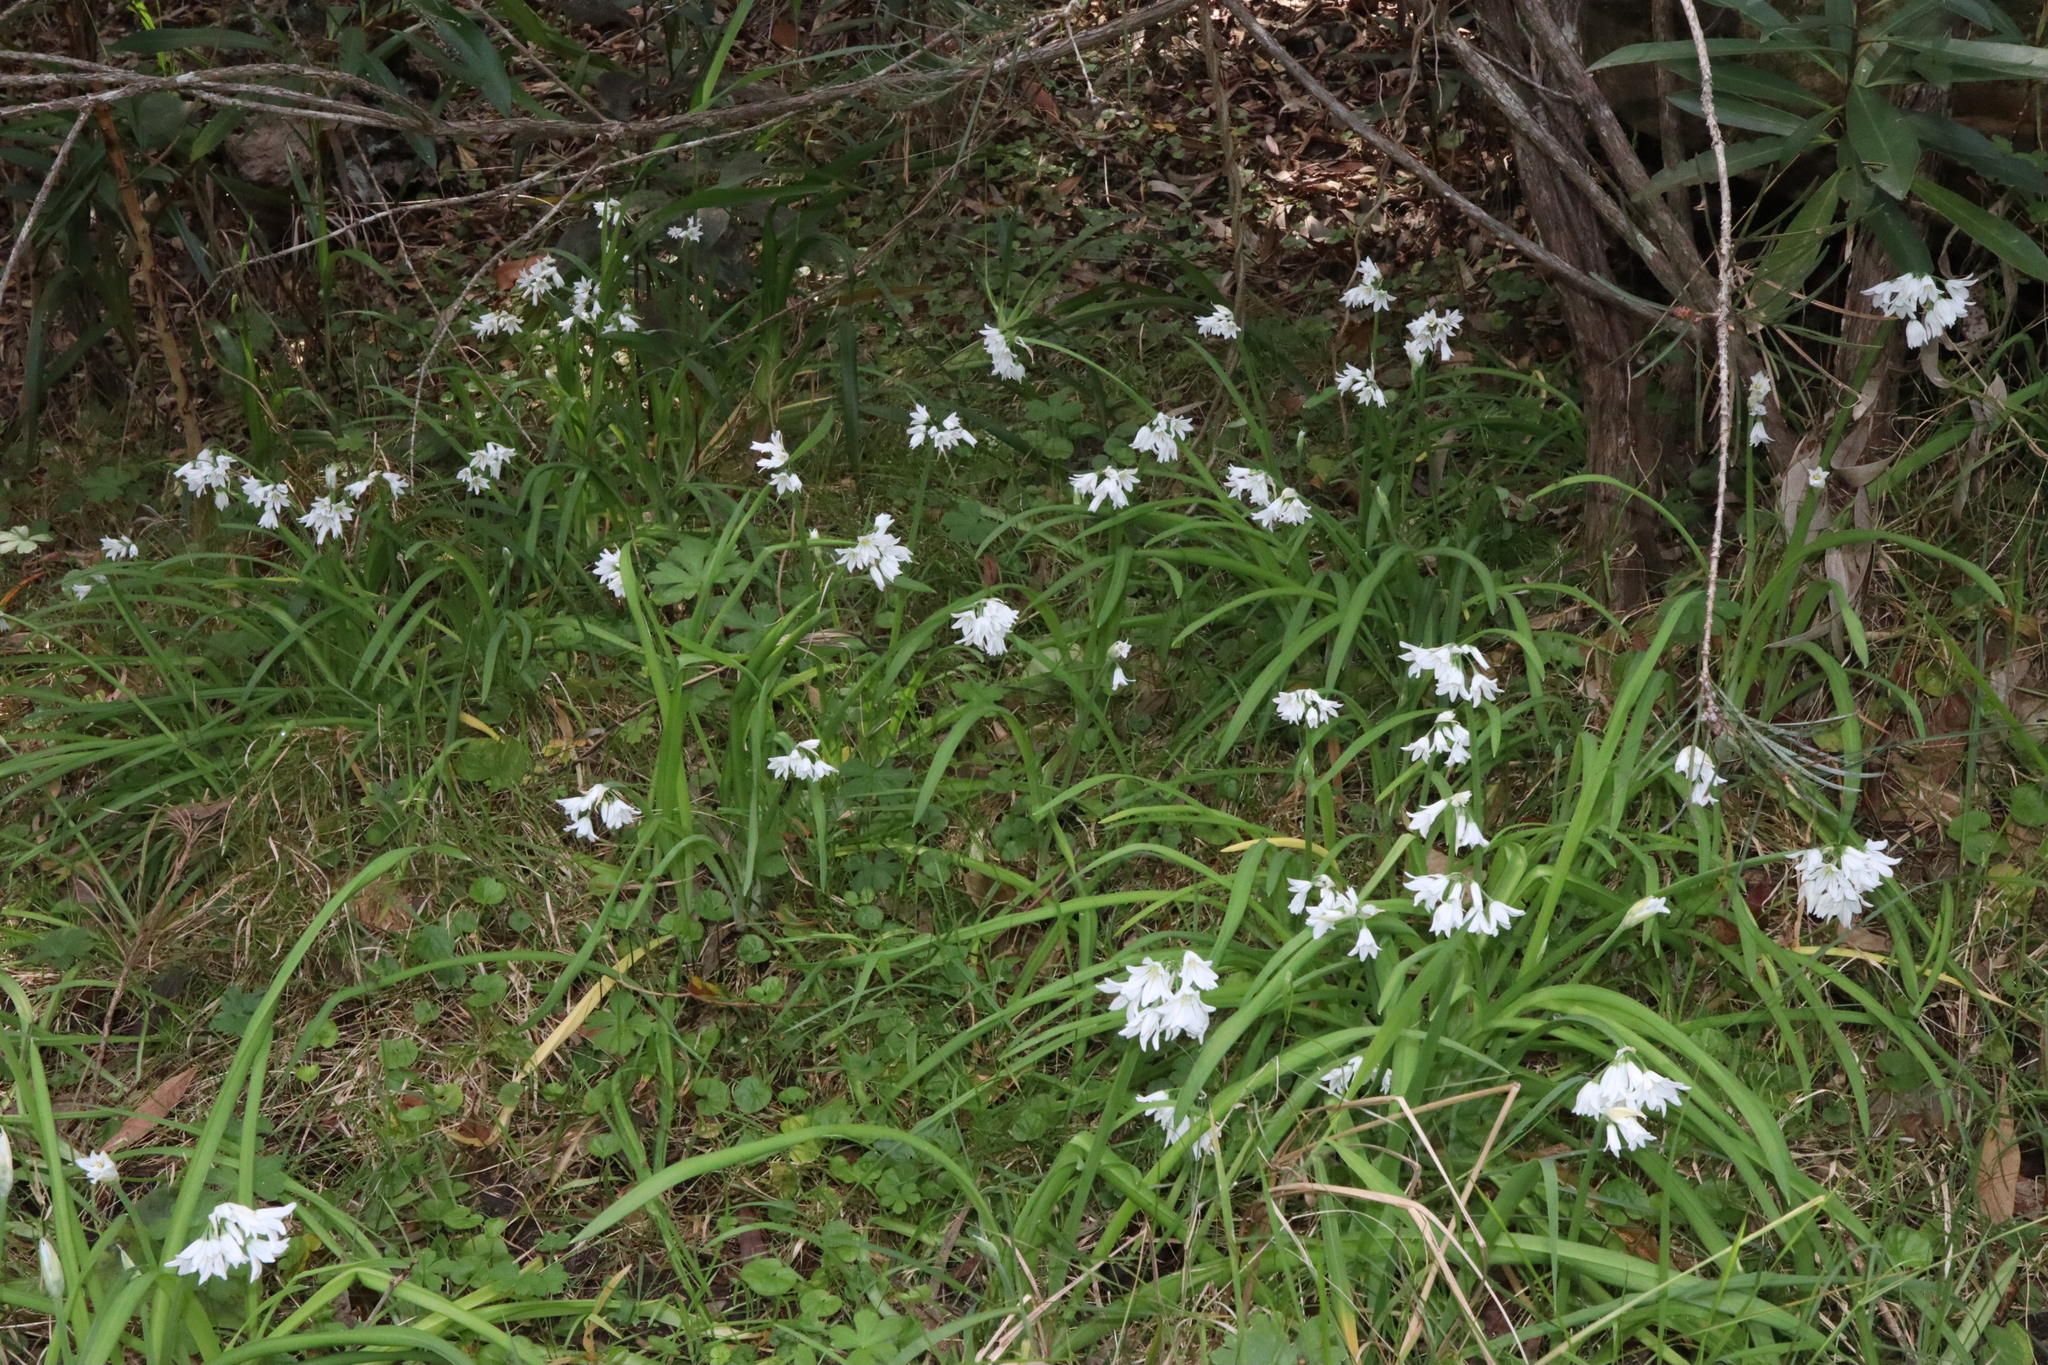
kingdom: Plantae
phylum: Tracheophyta
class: Liliopsida
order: Asparagales
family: Amaryllidaceae
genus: Allium
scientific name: Allium triquetrum
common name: Three-cornered garlic
